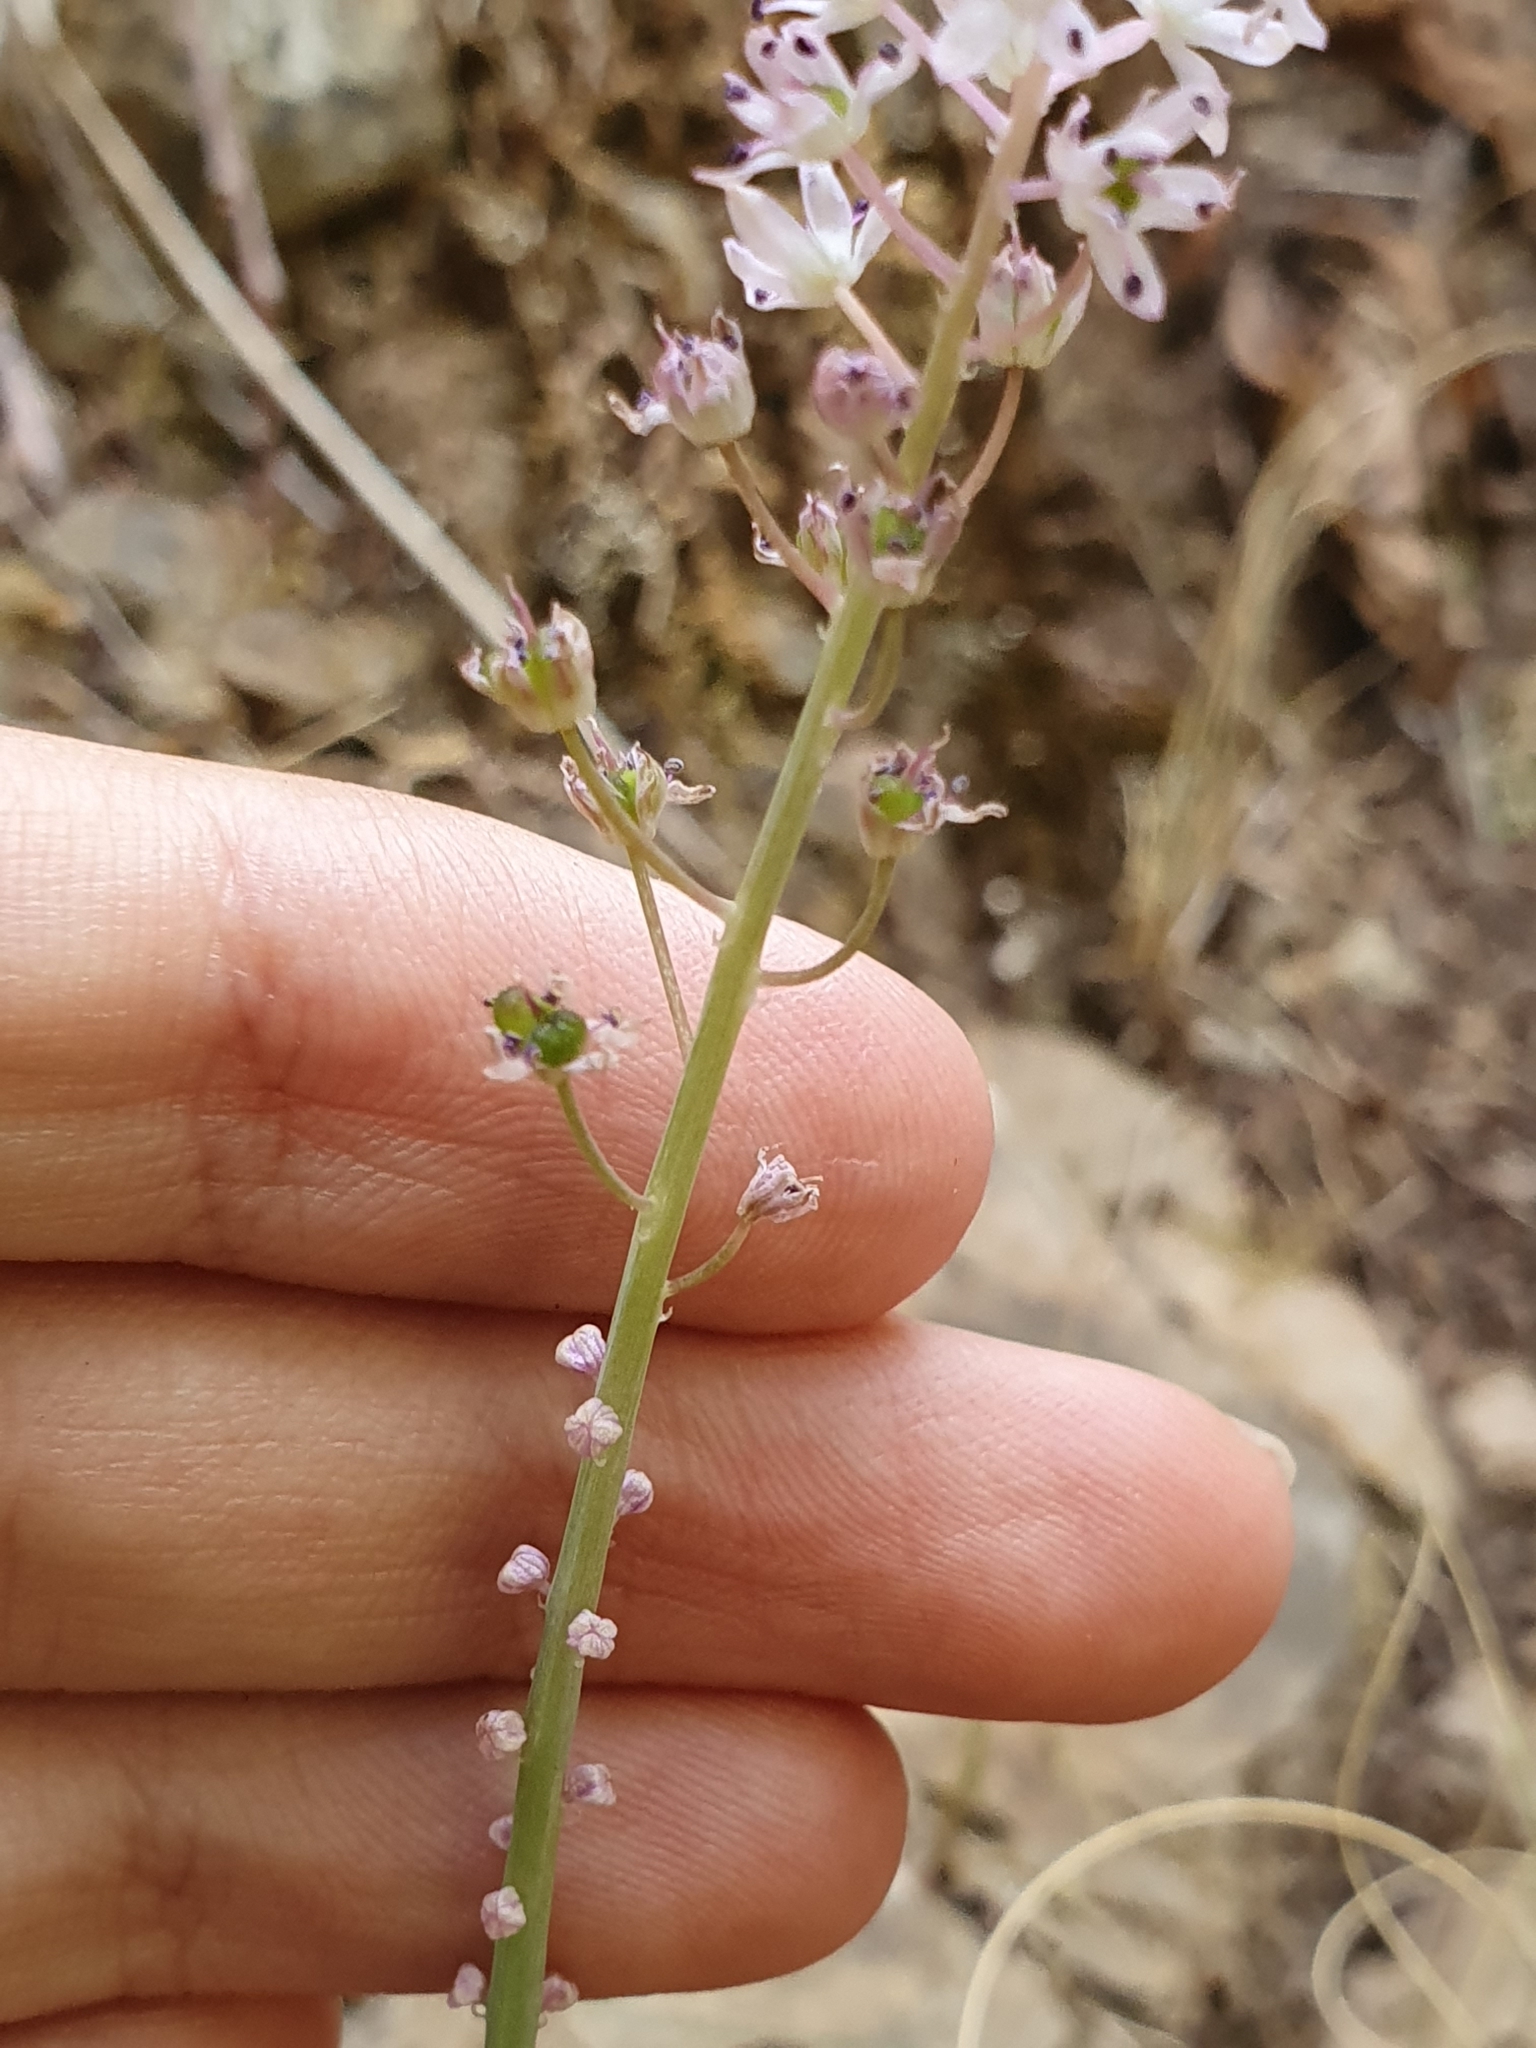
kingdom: Plantae
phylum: Tracheophyta
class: Liliopsida
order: Asparagales
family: Asparagaceae
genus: Barnardia
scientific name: Barnardia numidica
